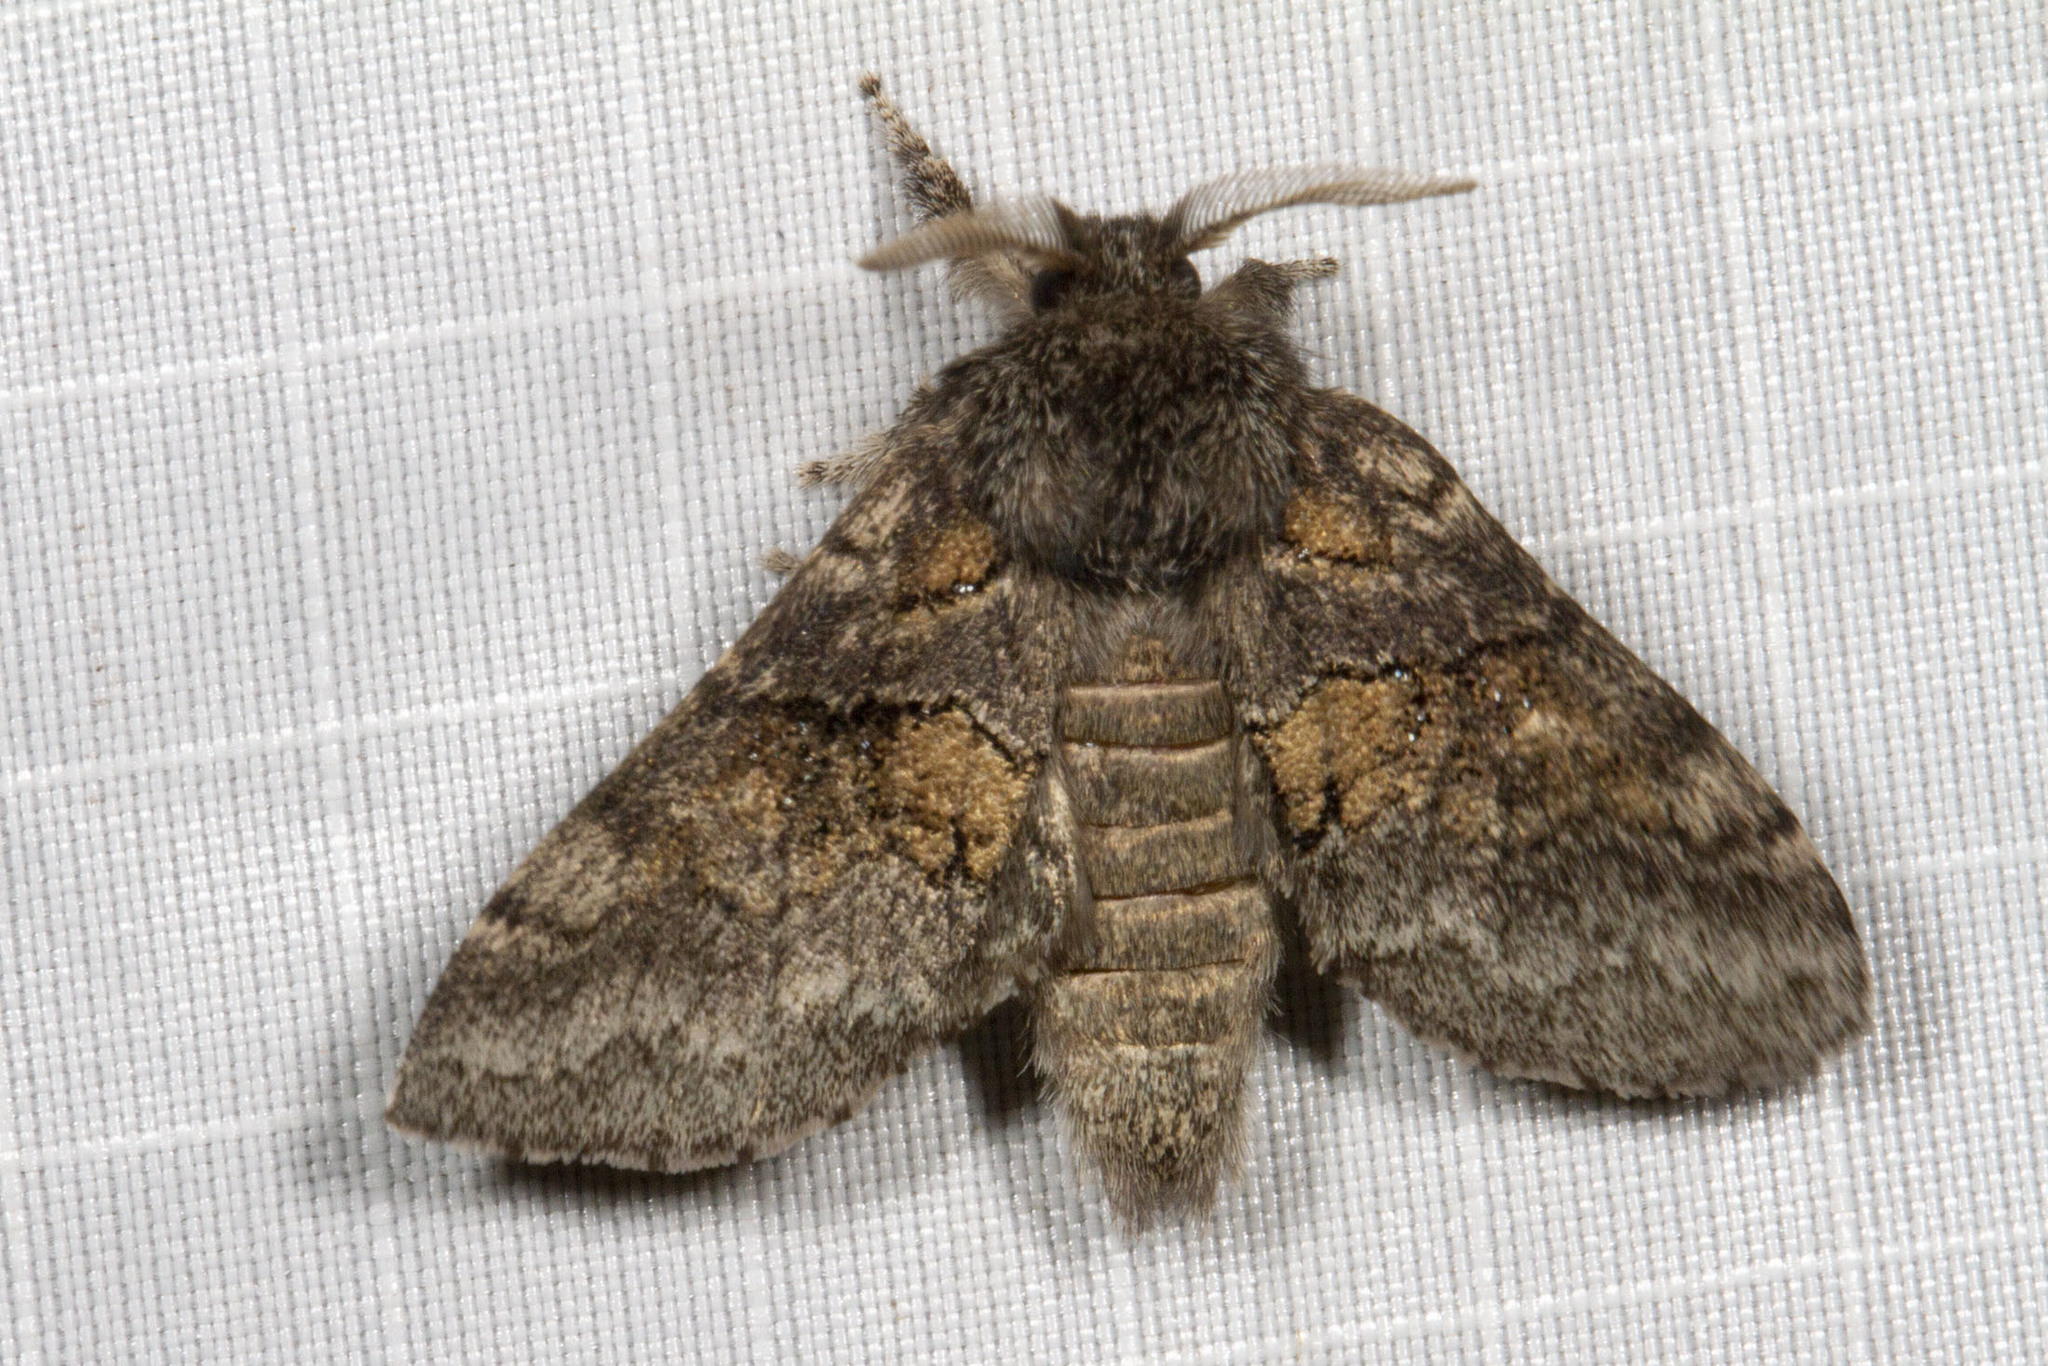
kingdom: Animalia
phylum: Arthropoda
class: Insecta
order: Lepidoptera
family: Notodontidae
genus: Gluphisia
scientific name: Gluphisia septentrionis
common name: Common gluphisia
